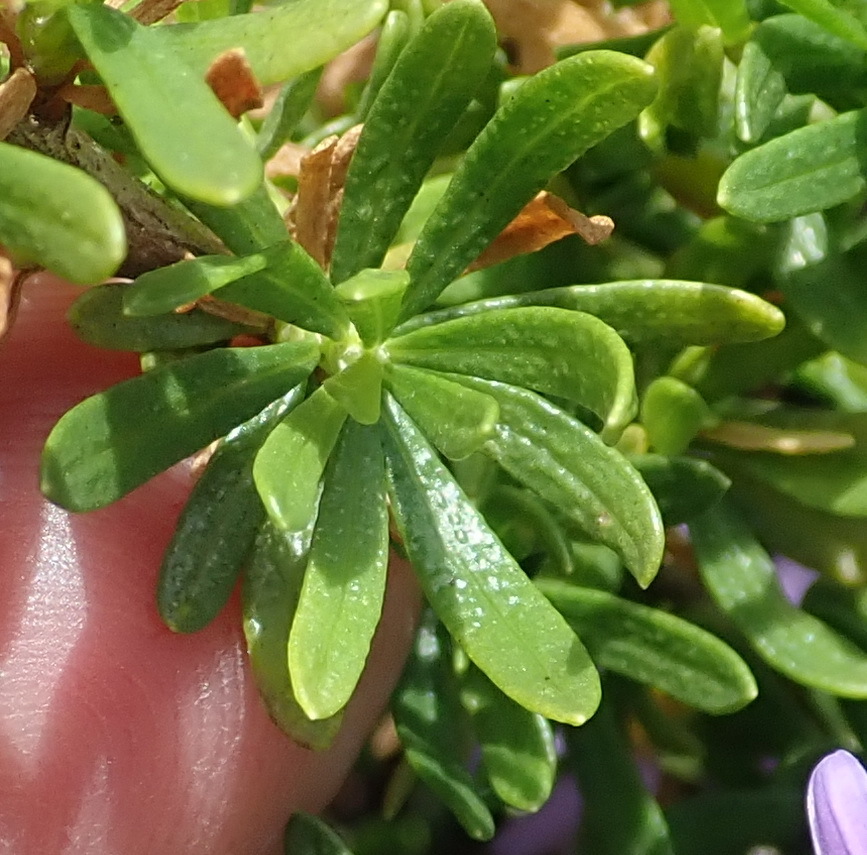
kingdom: Plantae
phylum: Tracheophyta
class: Magnoliopsida
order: Asterales
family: Asteraceae
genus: Felicia
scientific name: Felicia fruticosa
